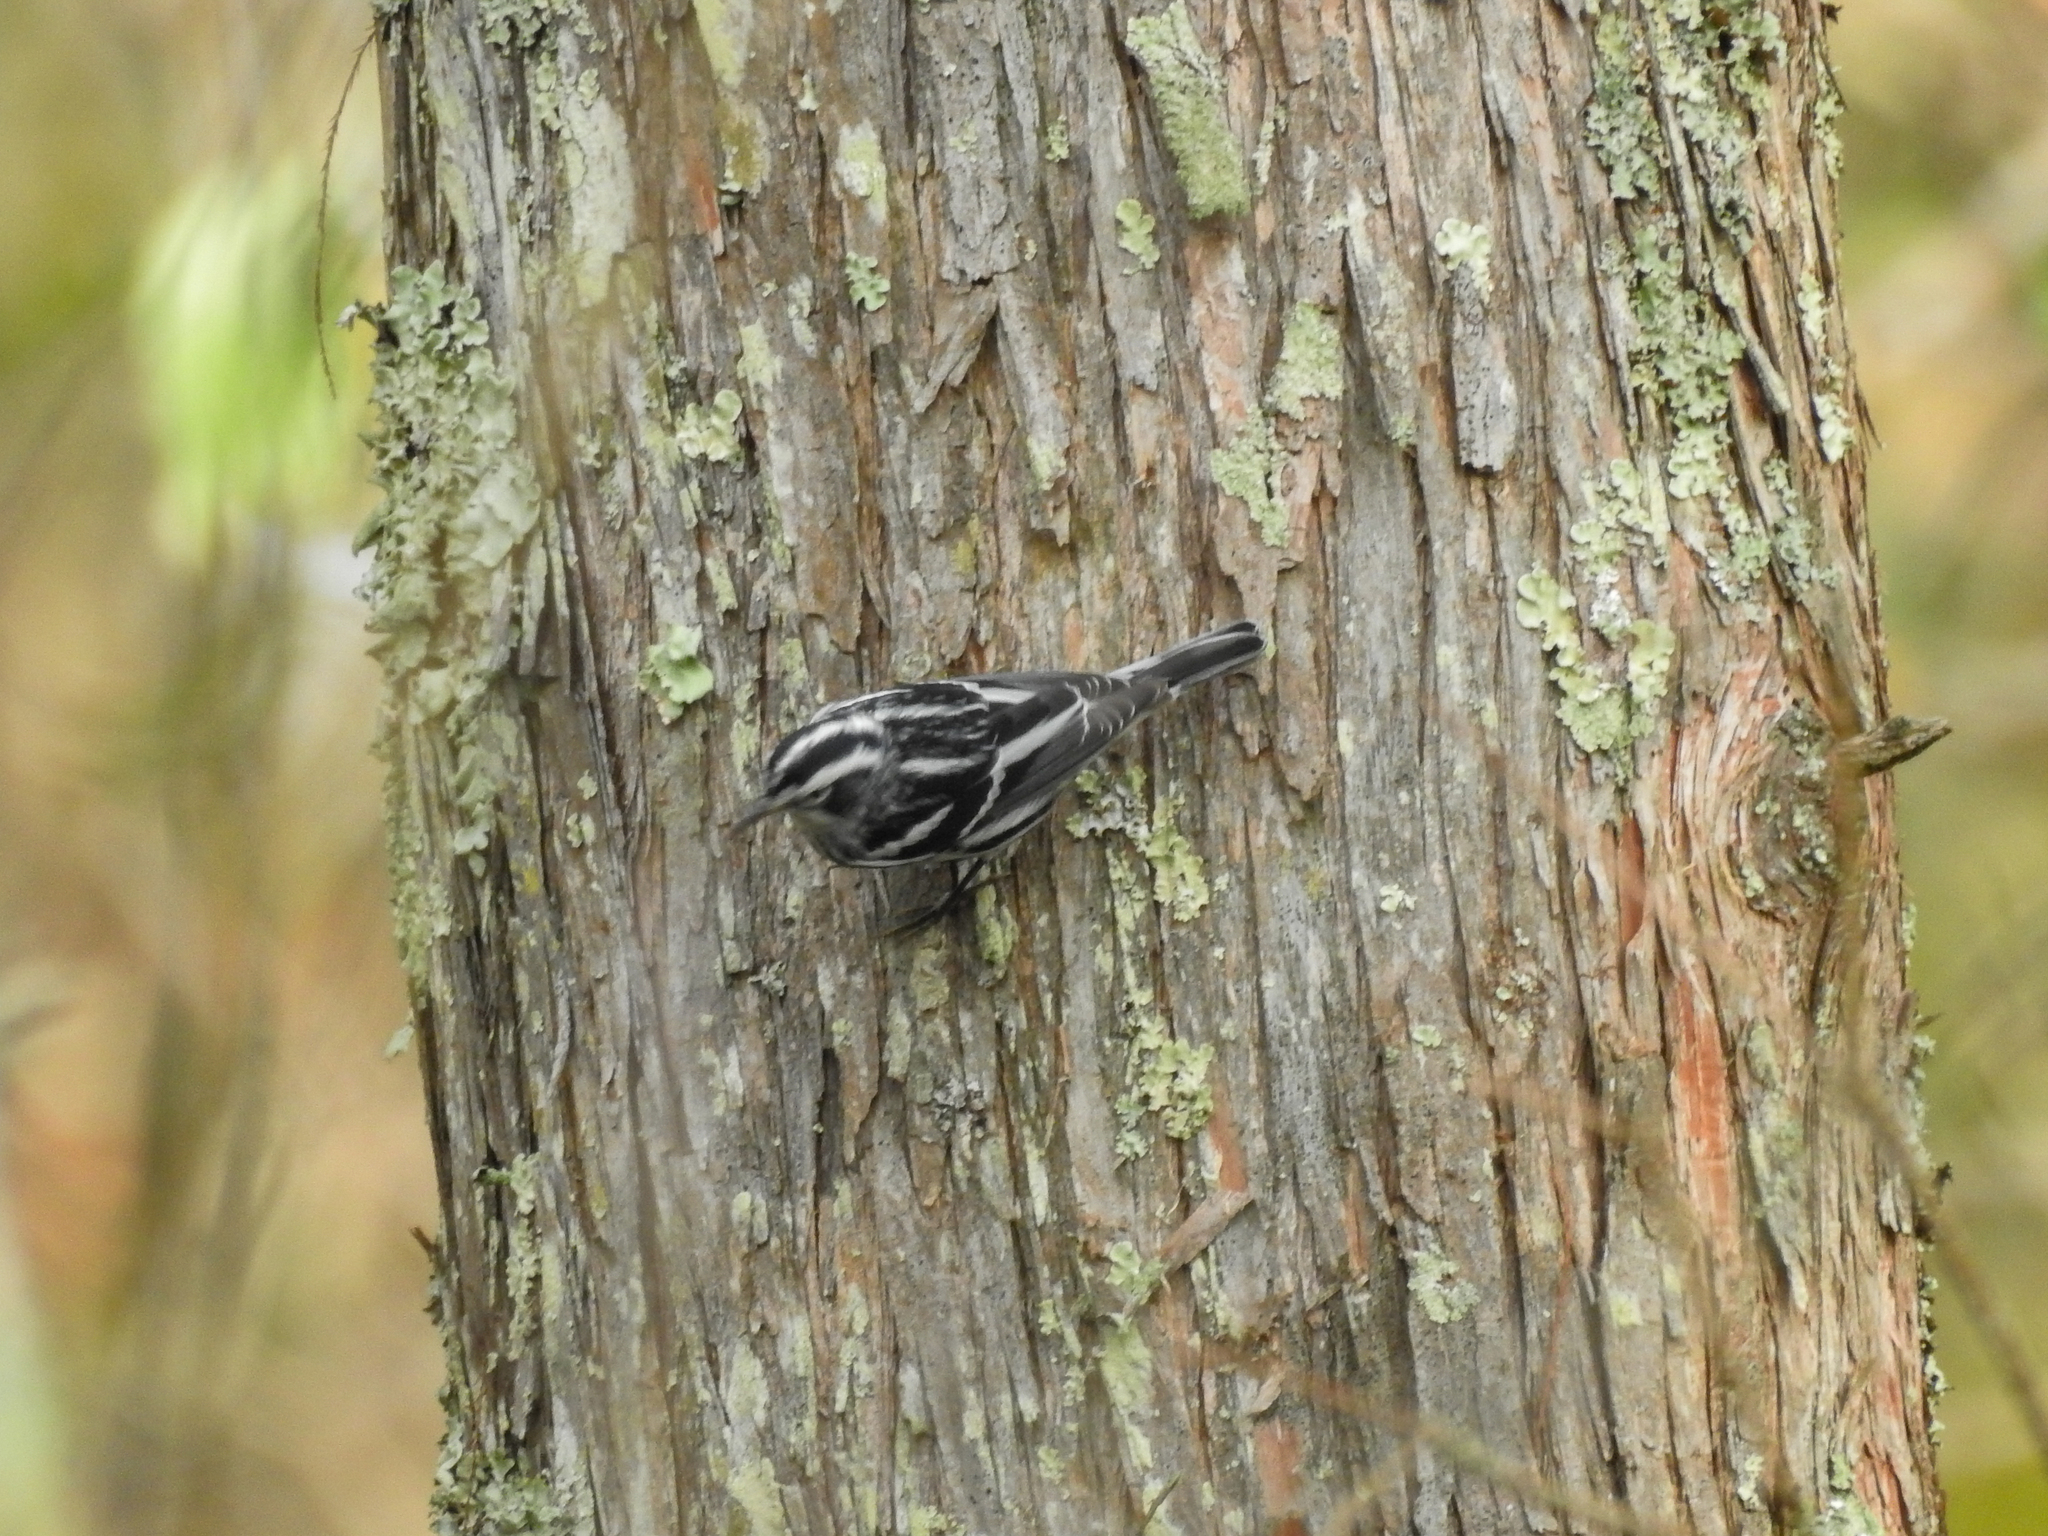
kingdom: Animalia
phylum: Chordata
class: Aves
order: Passeriformes
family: Parulidae
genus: Mniotilta
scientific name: Mniotilta varia
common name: Black-and-white warbler
